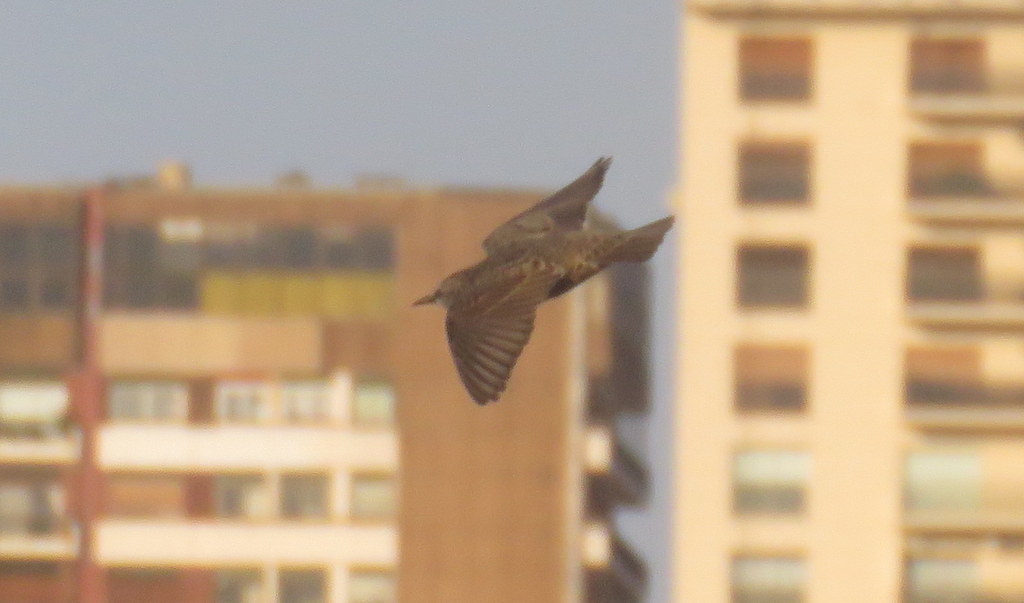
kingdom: Animalia
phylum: Chordata
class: Aves
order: Passeriformes
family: Sturnidae
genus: Sturnus
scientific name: Sturnus vulgaris
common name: Common starling
